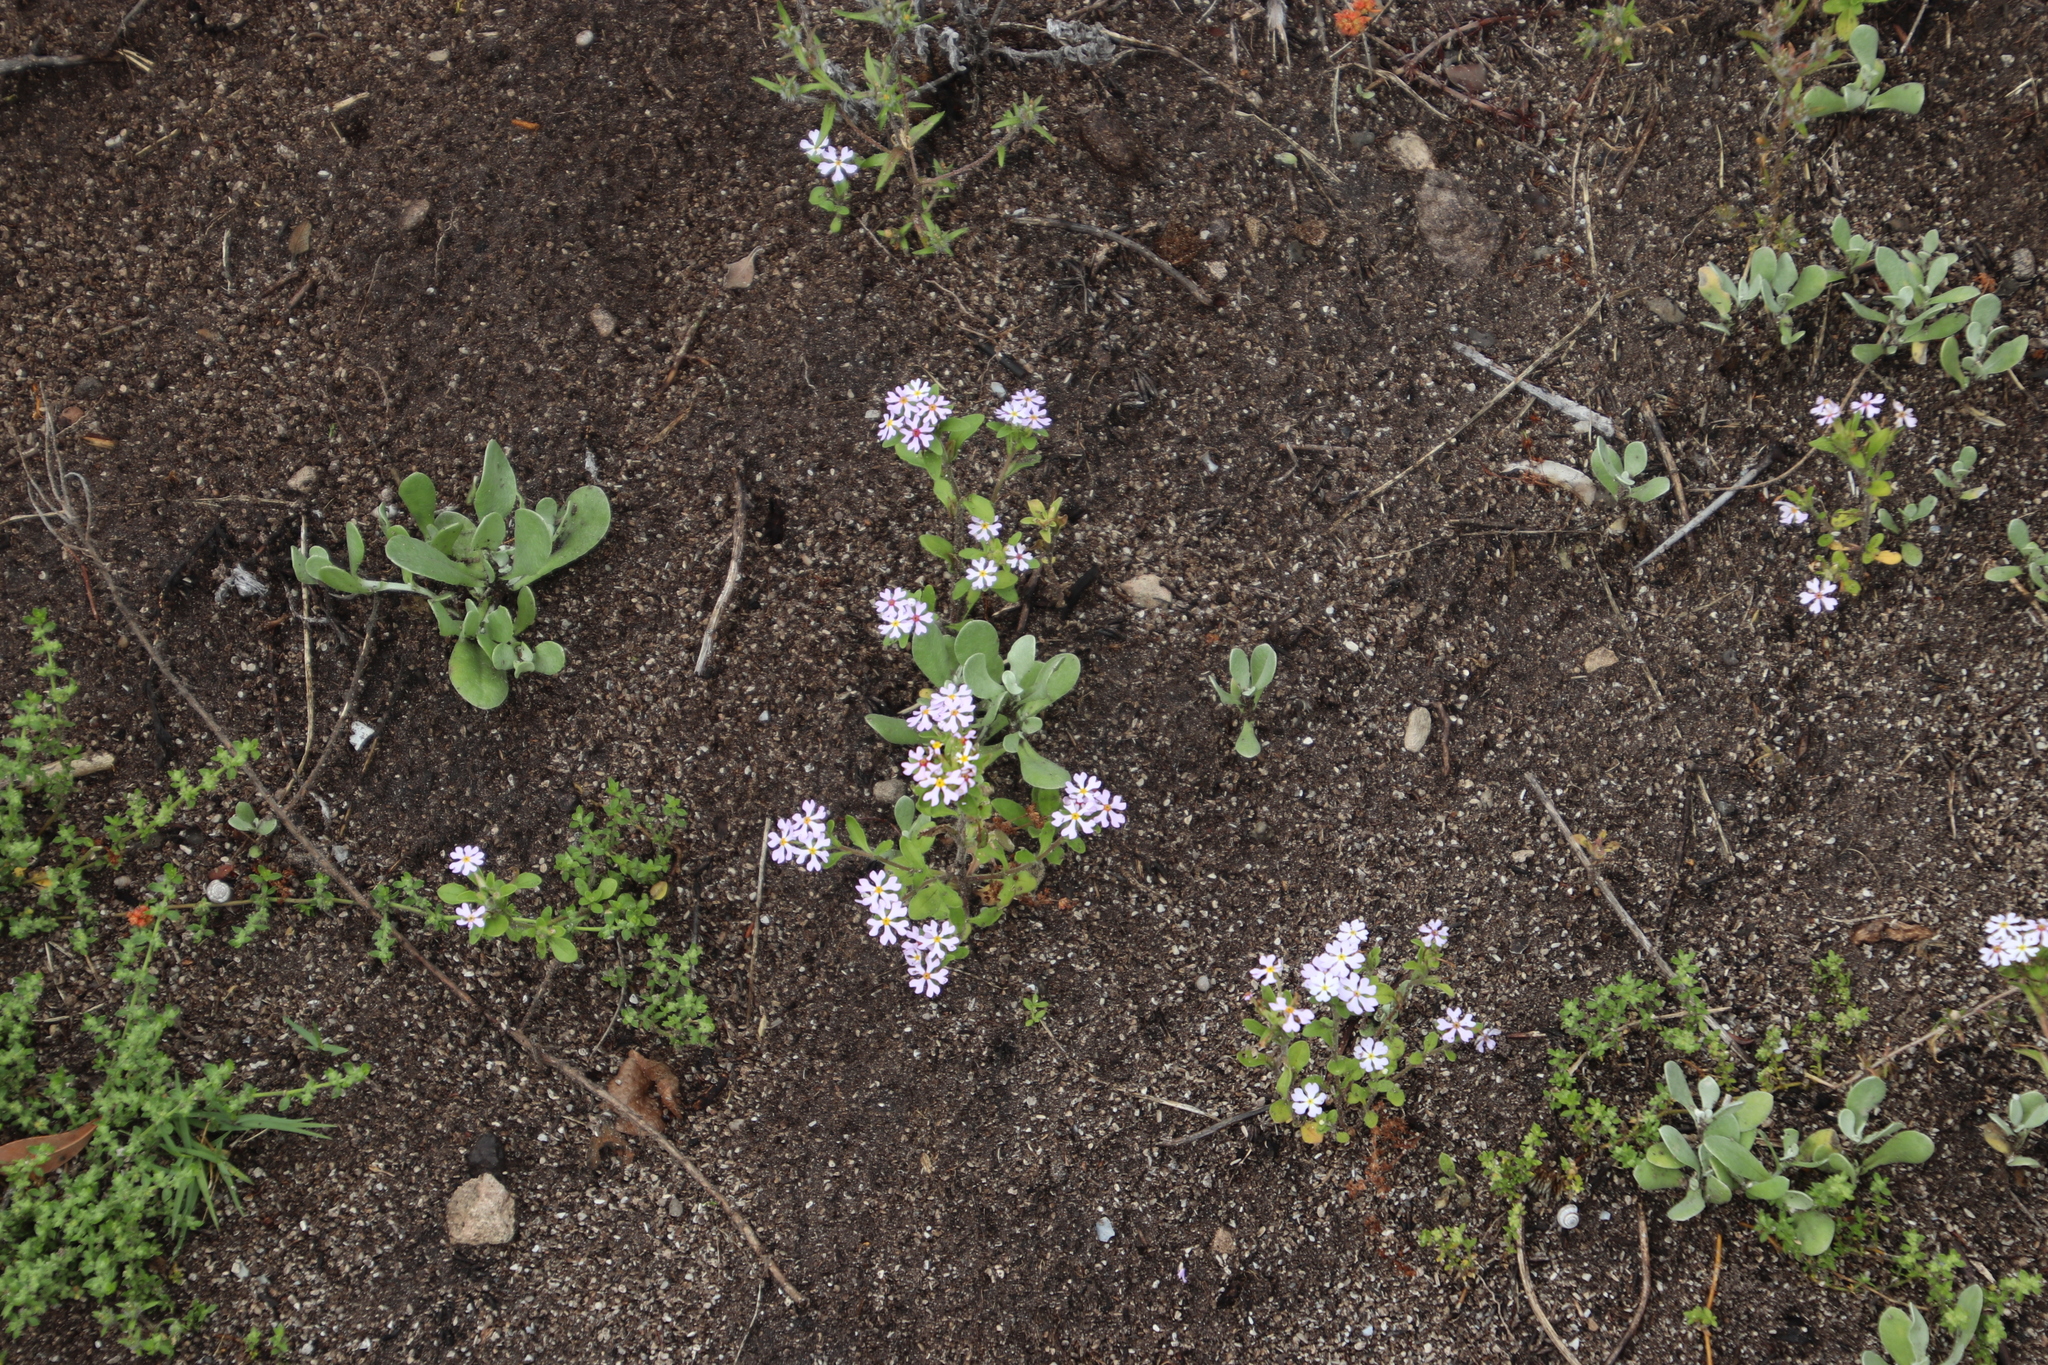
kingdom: Plantae
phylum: Tracheophyta
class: Magnoliopsida
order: Lamiales
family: Scrophulariaceae
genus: Zaluzianskya
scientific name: Zaluzianskya villosa
